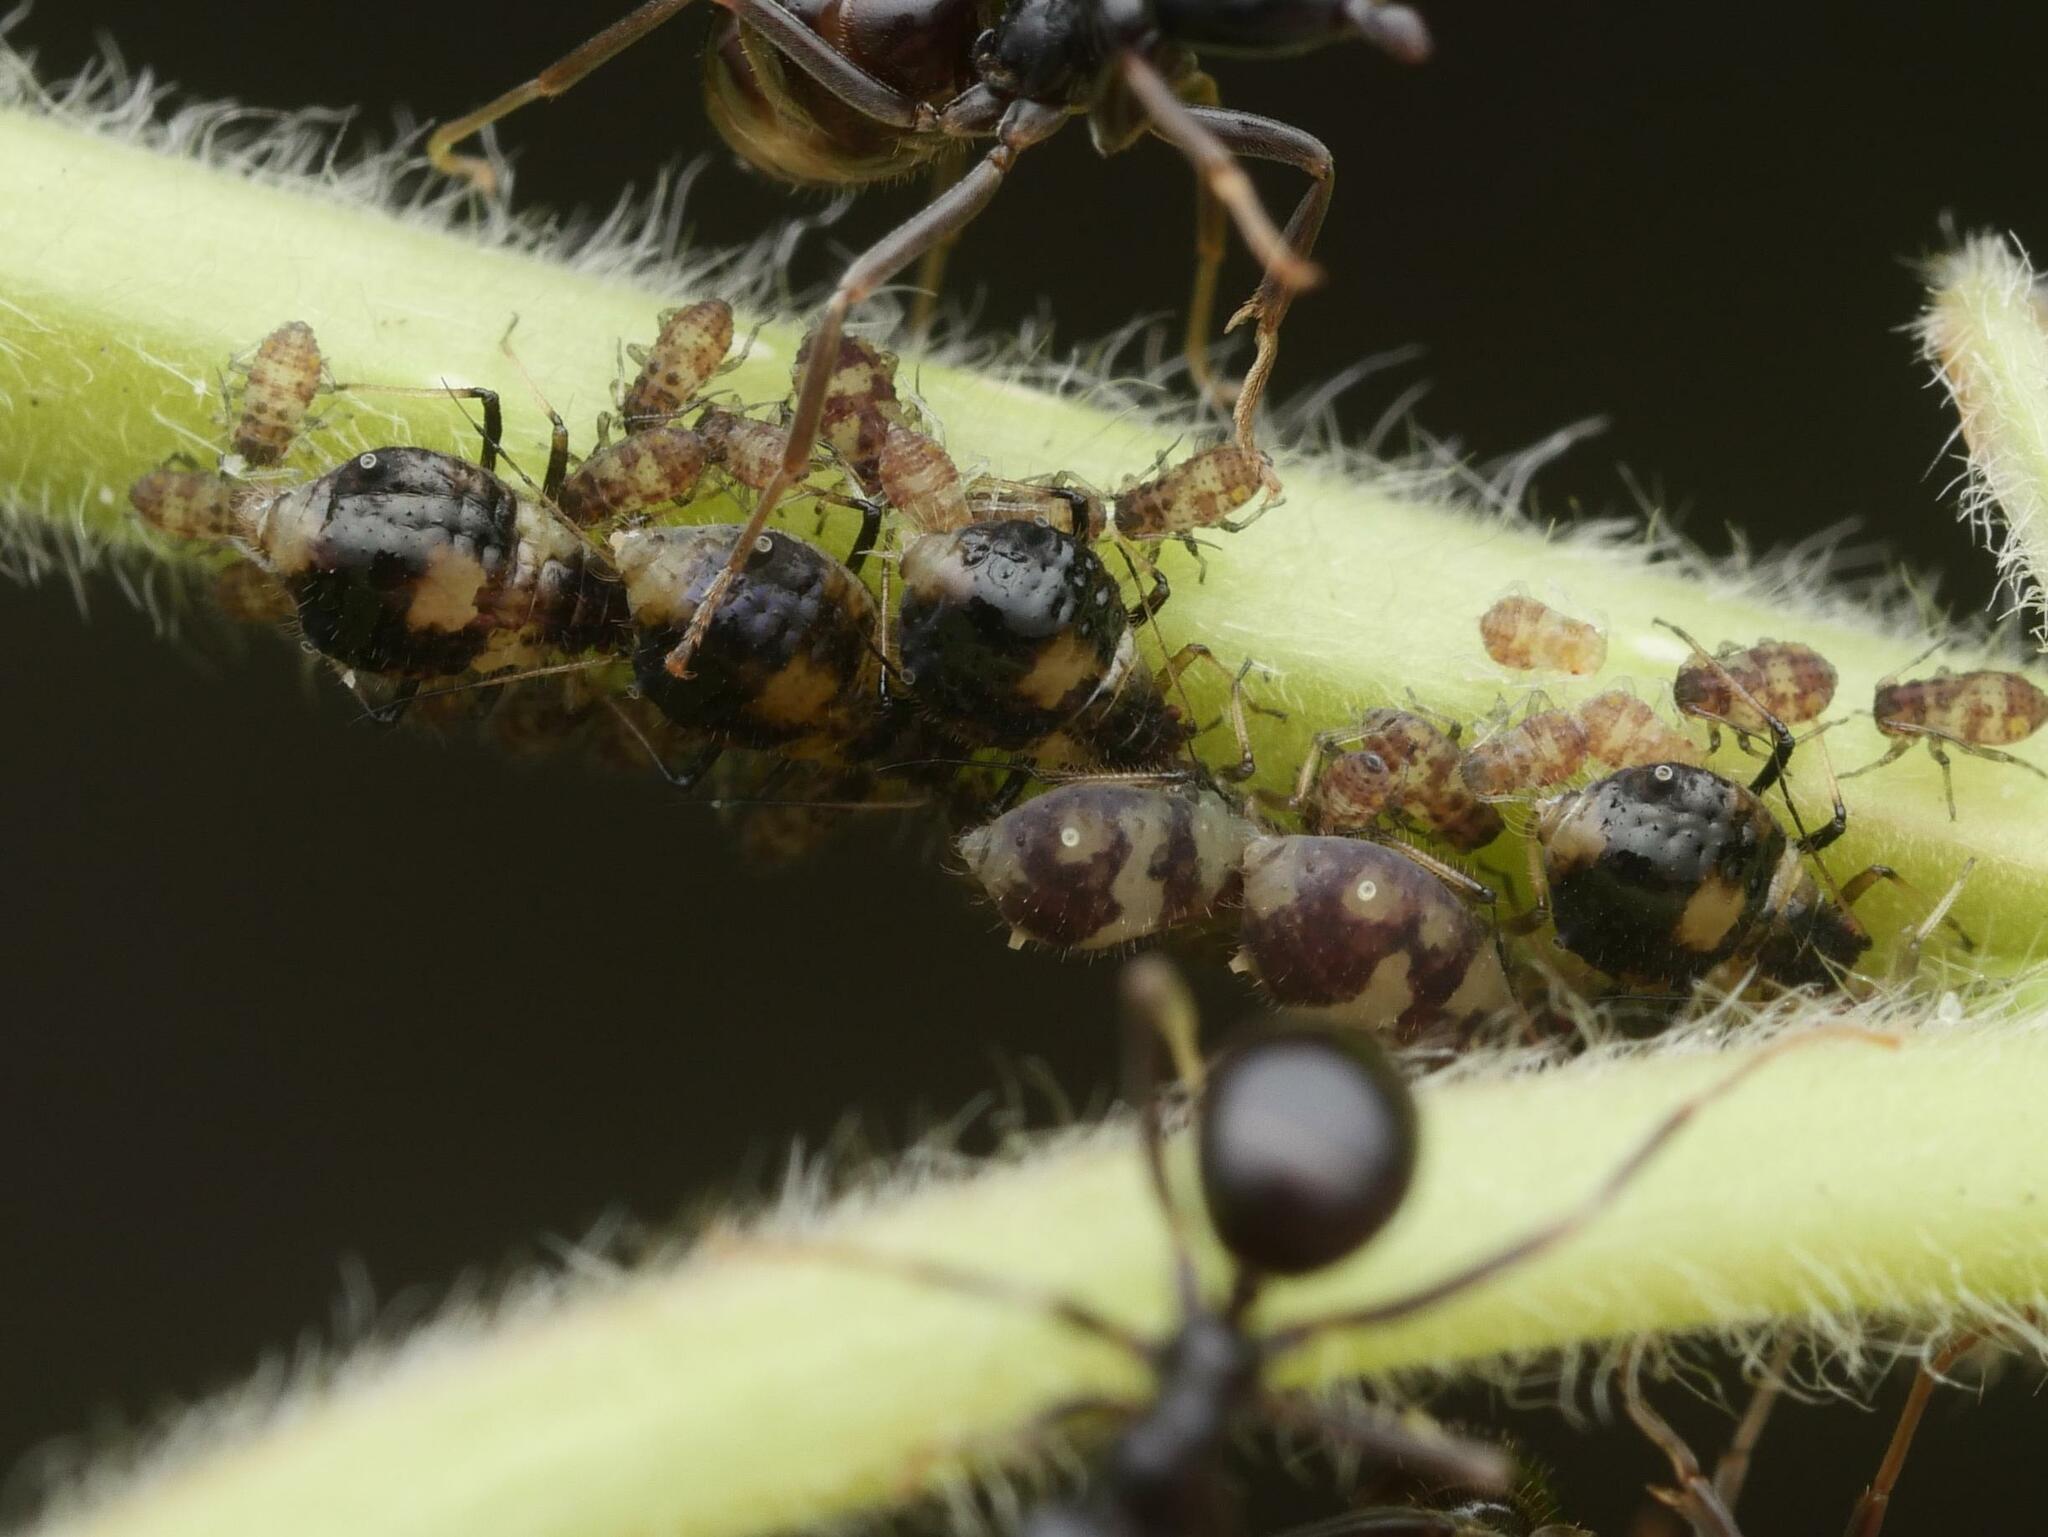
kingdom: Animalia
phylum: Arthropoda
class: Insecta
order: Hemiptera
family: Aphididae
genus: Chaitophorus
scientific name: Chaitophorus populeti
